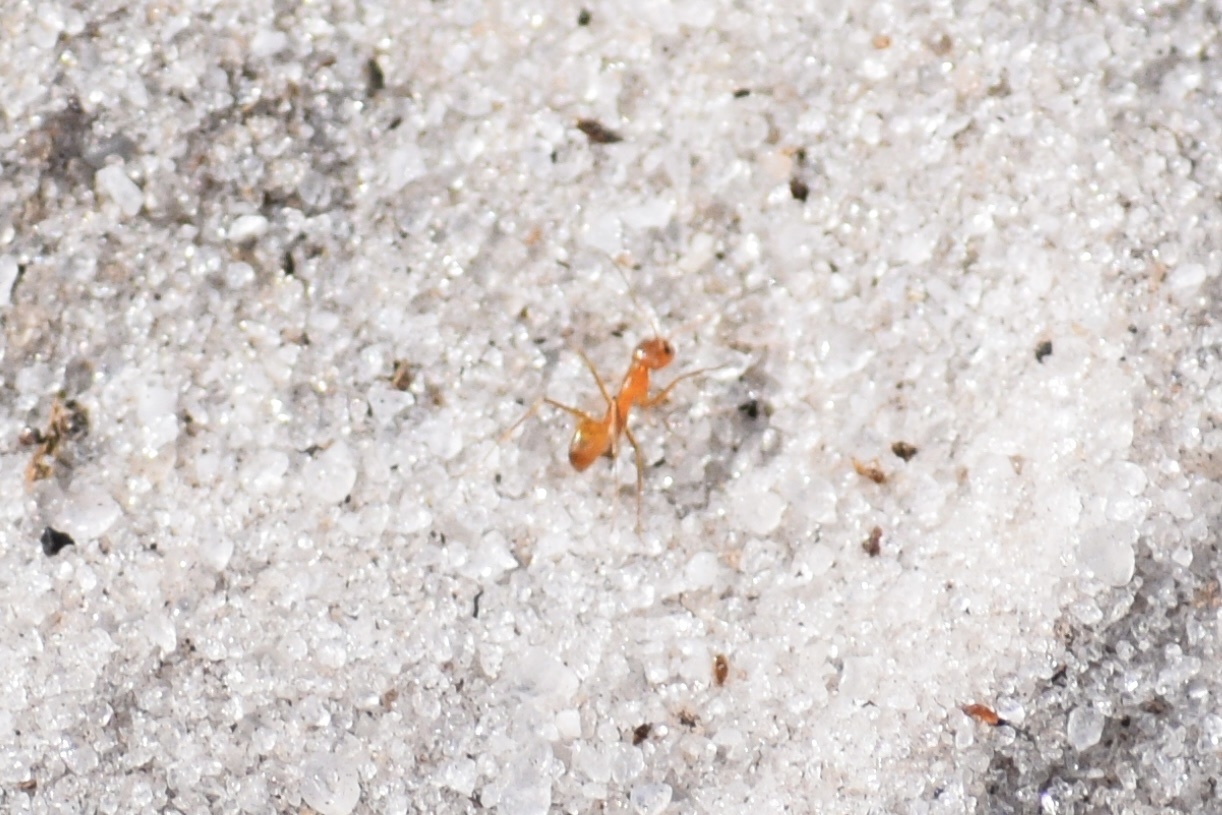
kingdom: Animalia
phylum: Arthropoda
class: Insecta
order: Hymenoptera
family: Formicidae
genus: Dorymyrmex
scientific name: Dorymyrmex bureni
